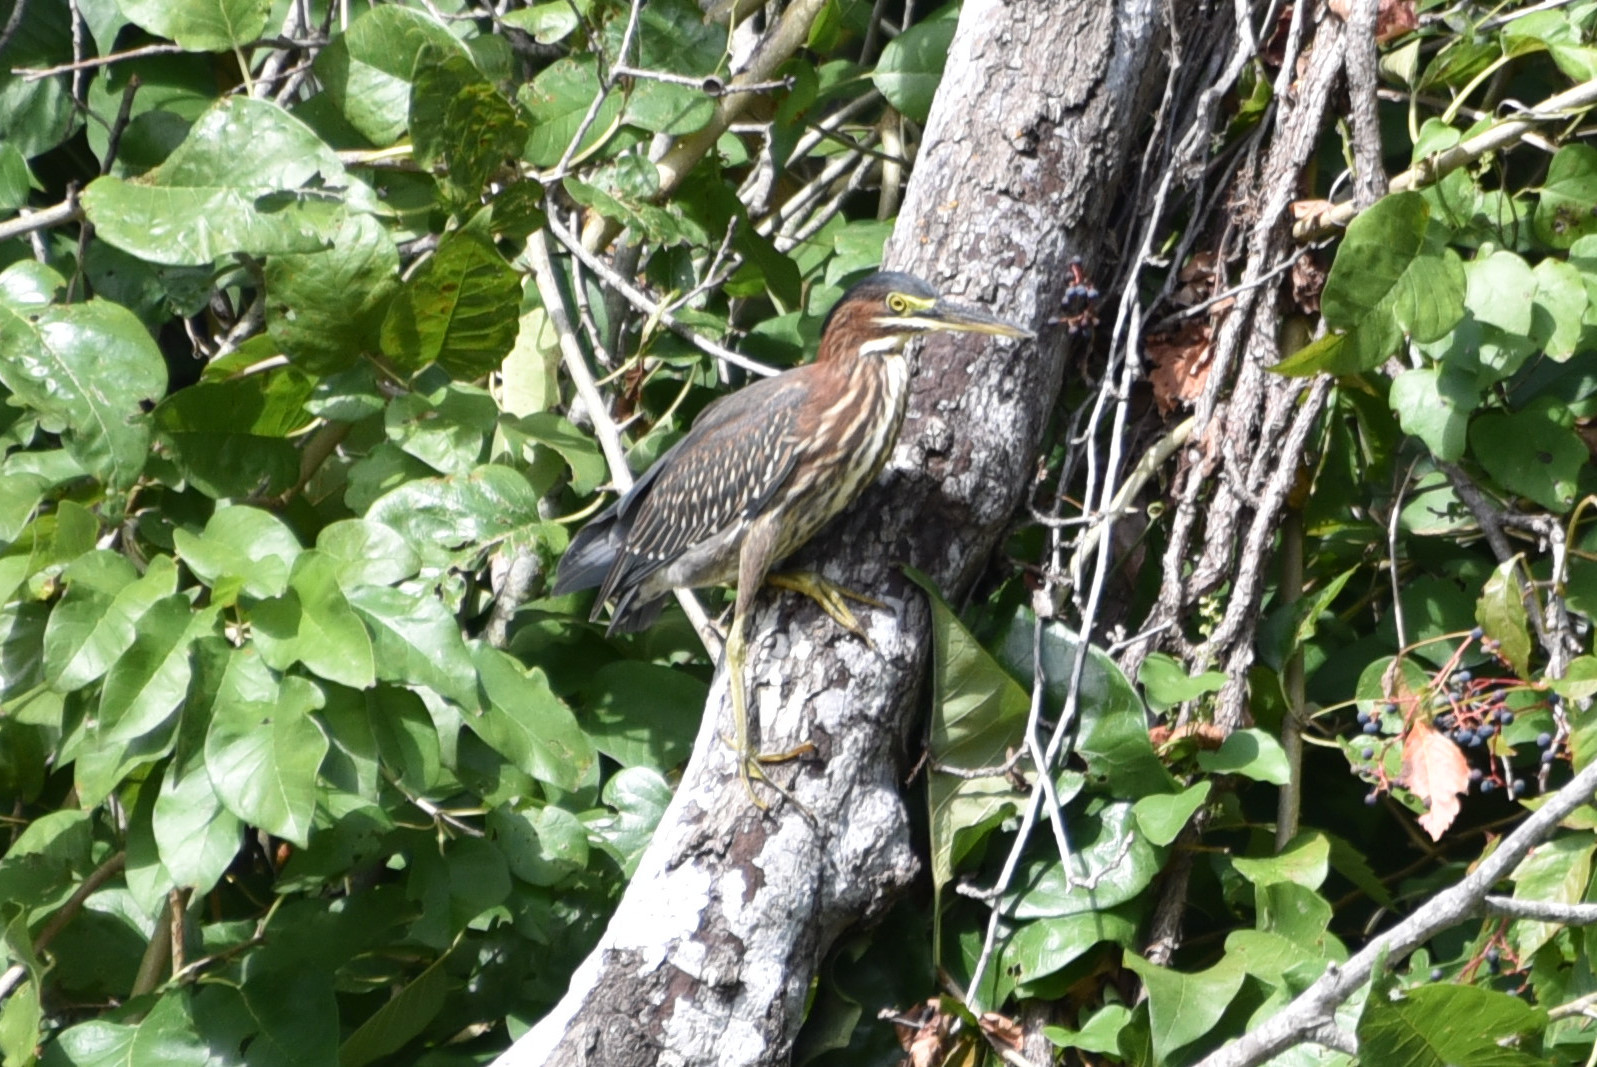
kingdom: Animalia
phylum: Chordata
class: Aves
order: Pelecaniformes
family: Ardeidae
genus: Butorides
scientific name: Butorides virescens
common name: Green heron
